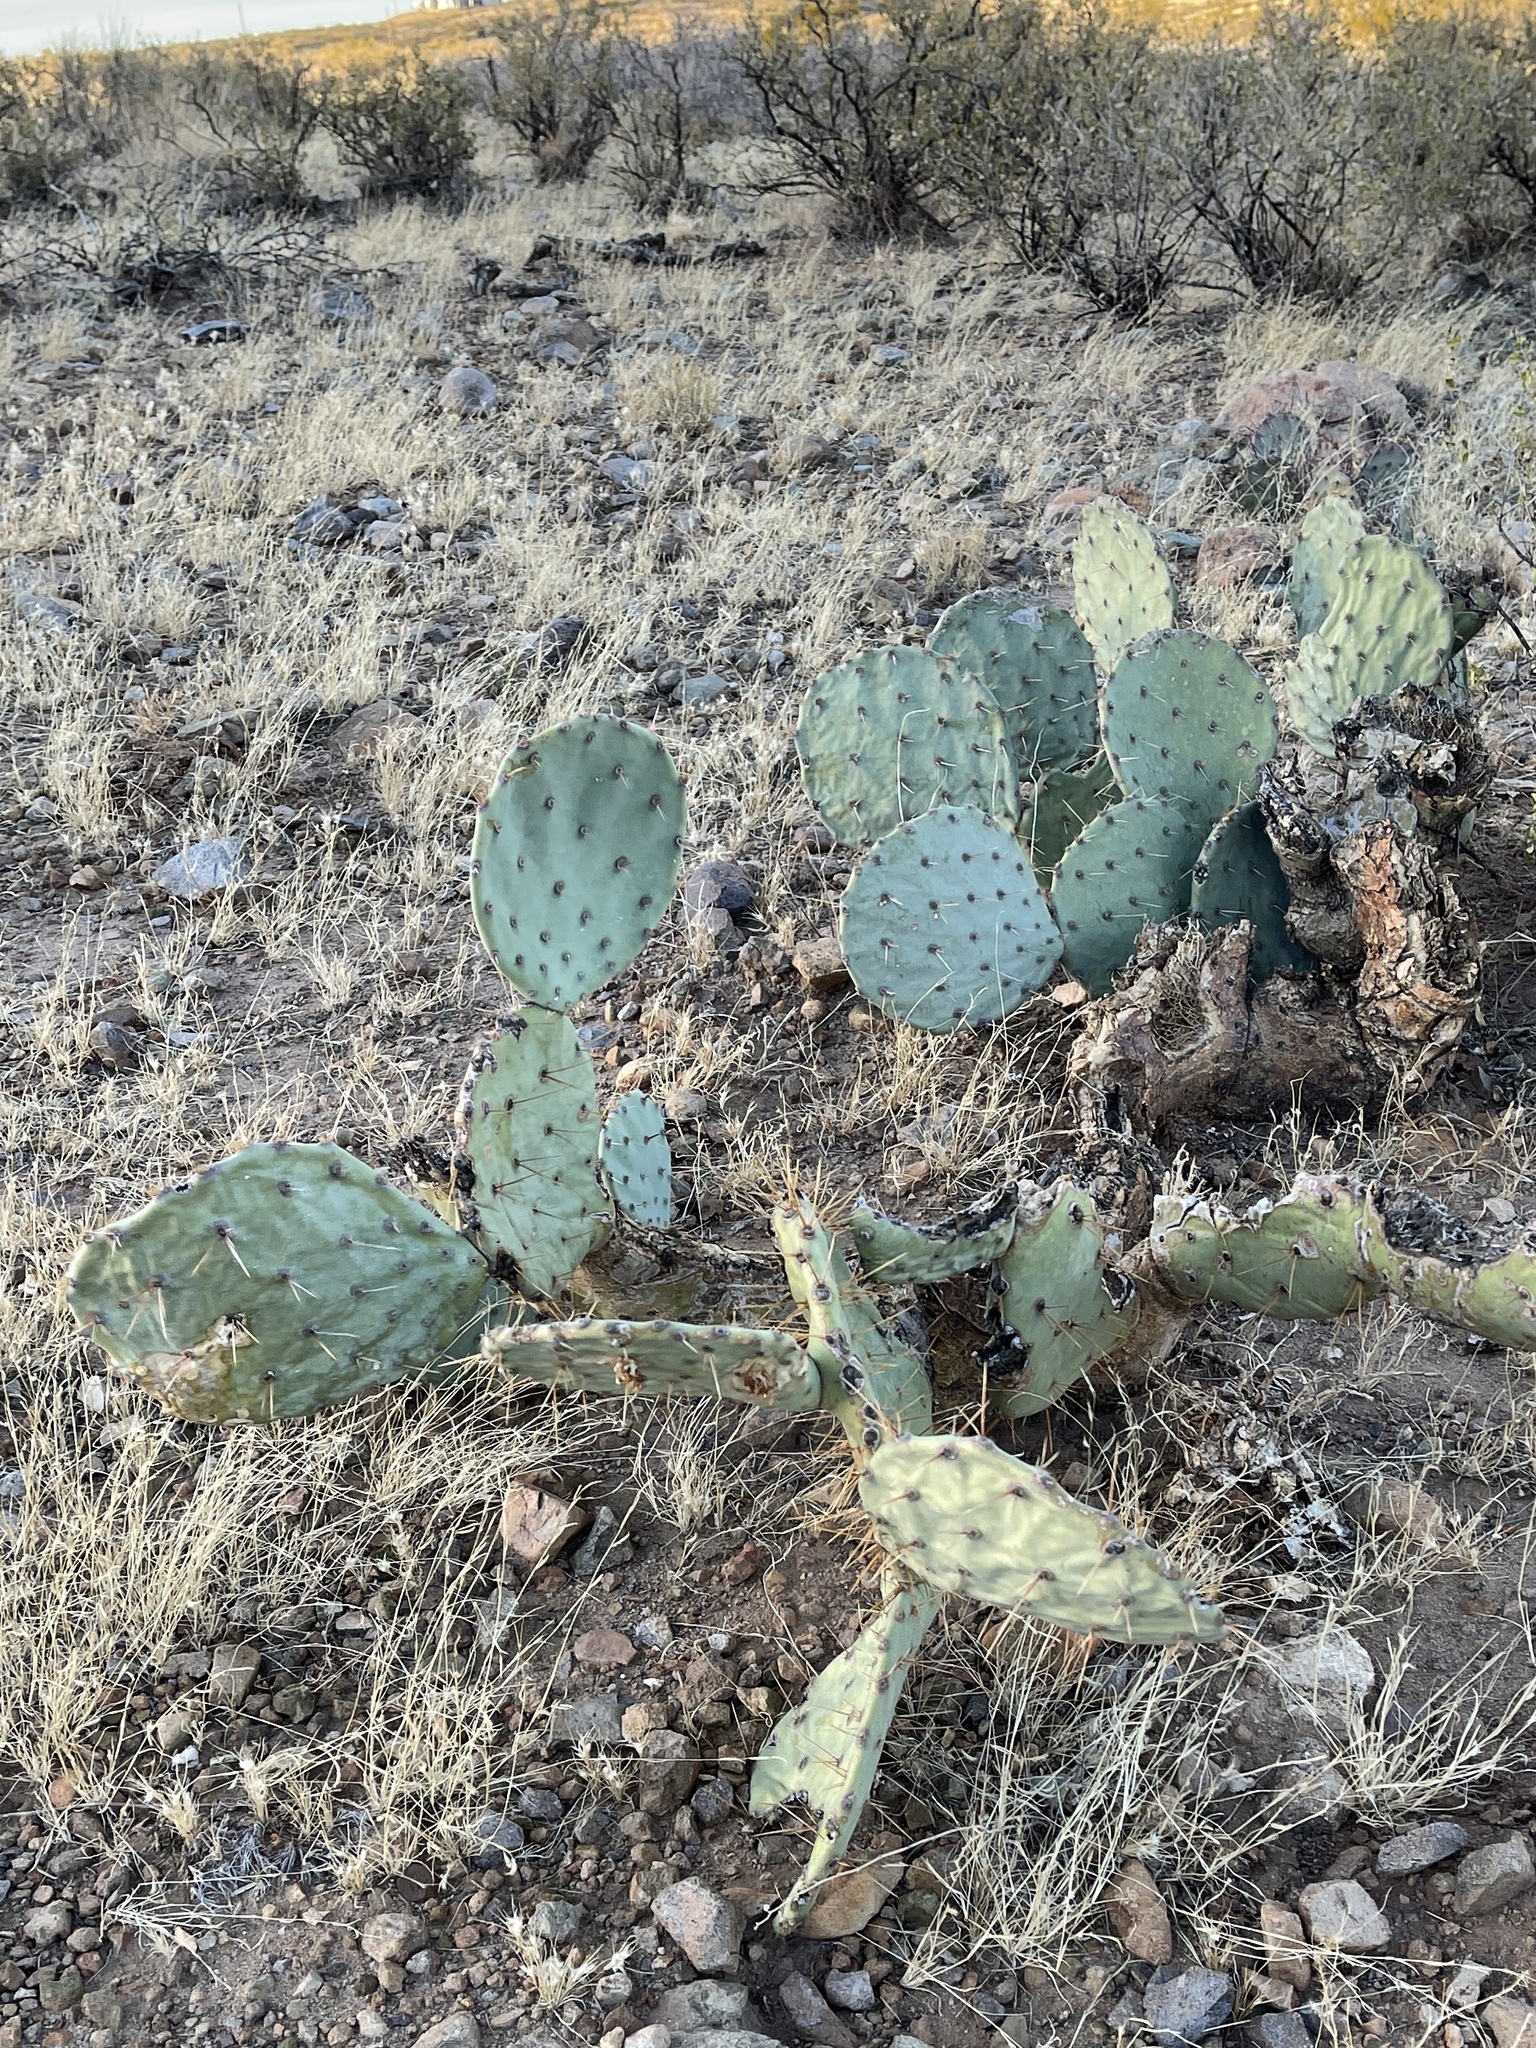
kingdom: Plantae
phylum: Tracheophyta
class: Magnoliopsida
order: Caryophyllales
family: Cactaceae
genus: Opuntia
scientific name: Opuntia engelmannii
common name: Cactus-apple
